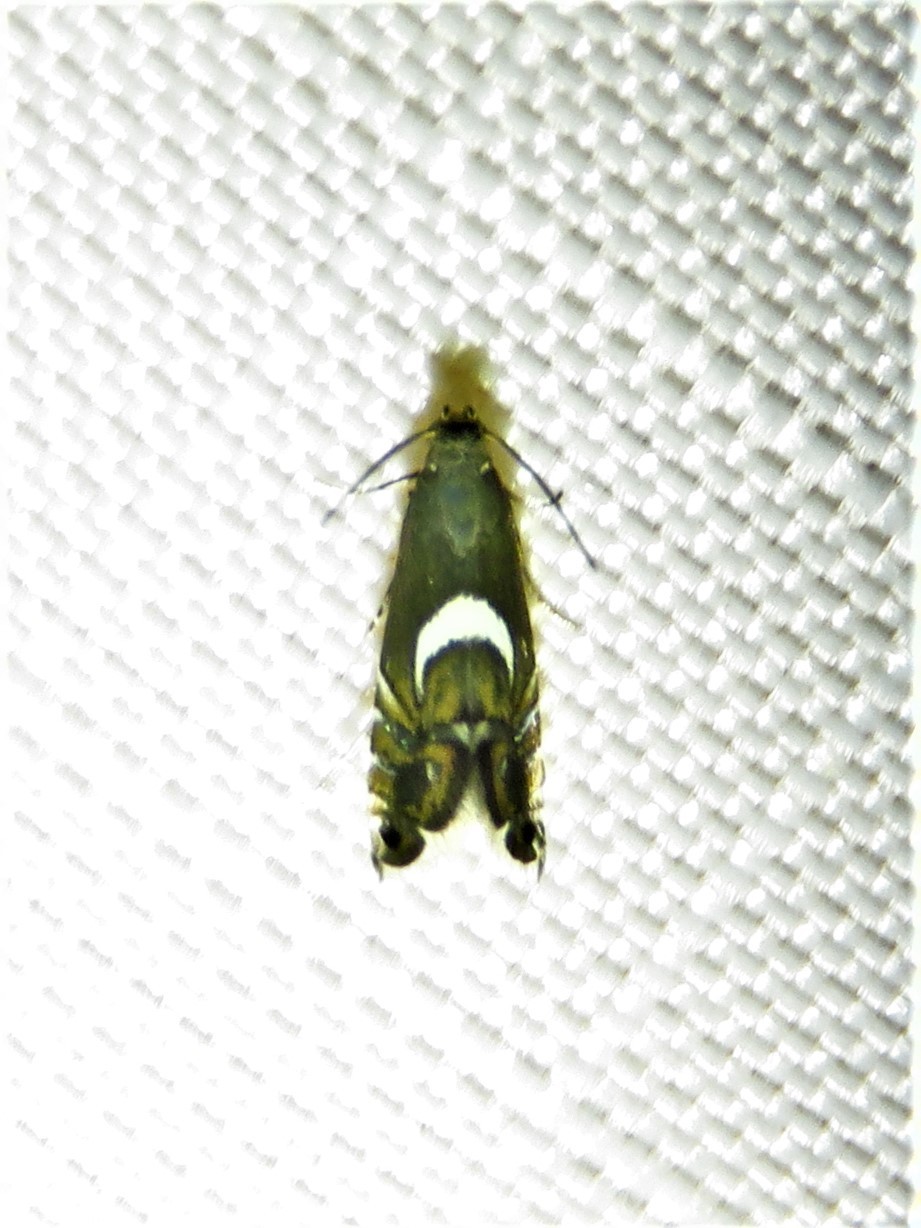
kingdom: Animalia
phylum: Arthropoda
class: Insecta
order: Lepidoptera
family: Glyphipterigidae
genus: Glyphipterix
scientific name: Glyphipterix Diploschizia impigritella
